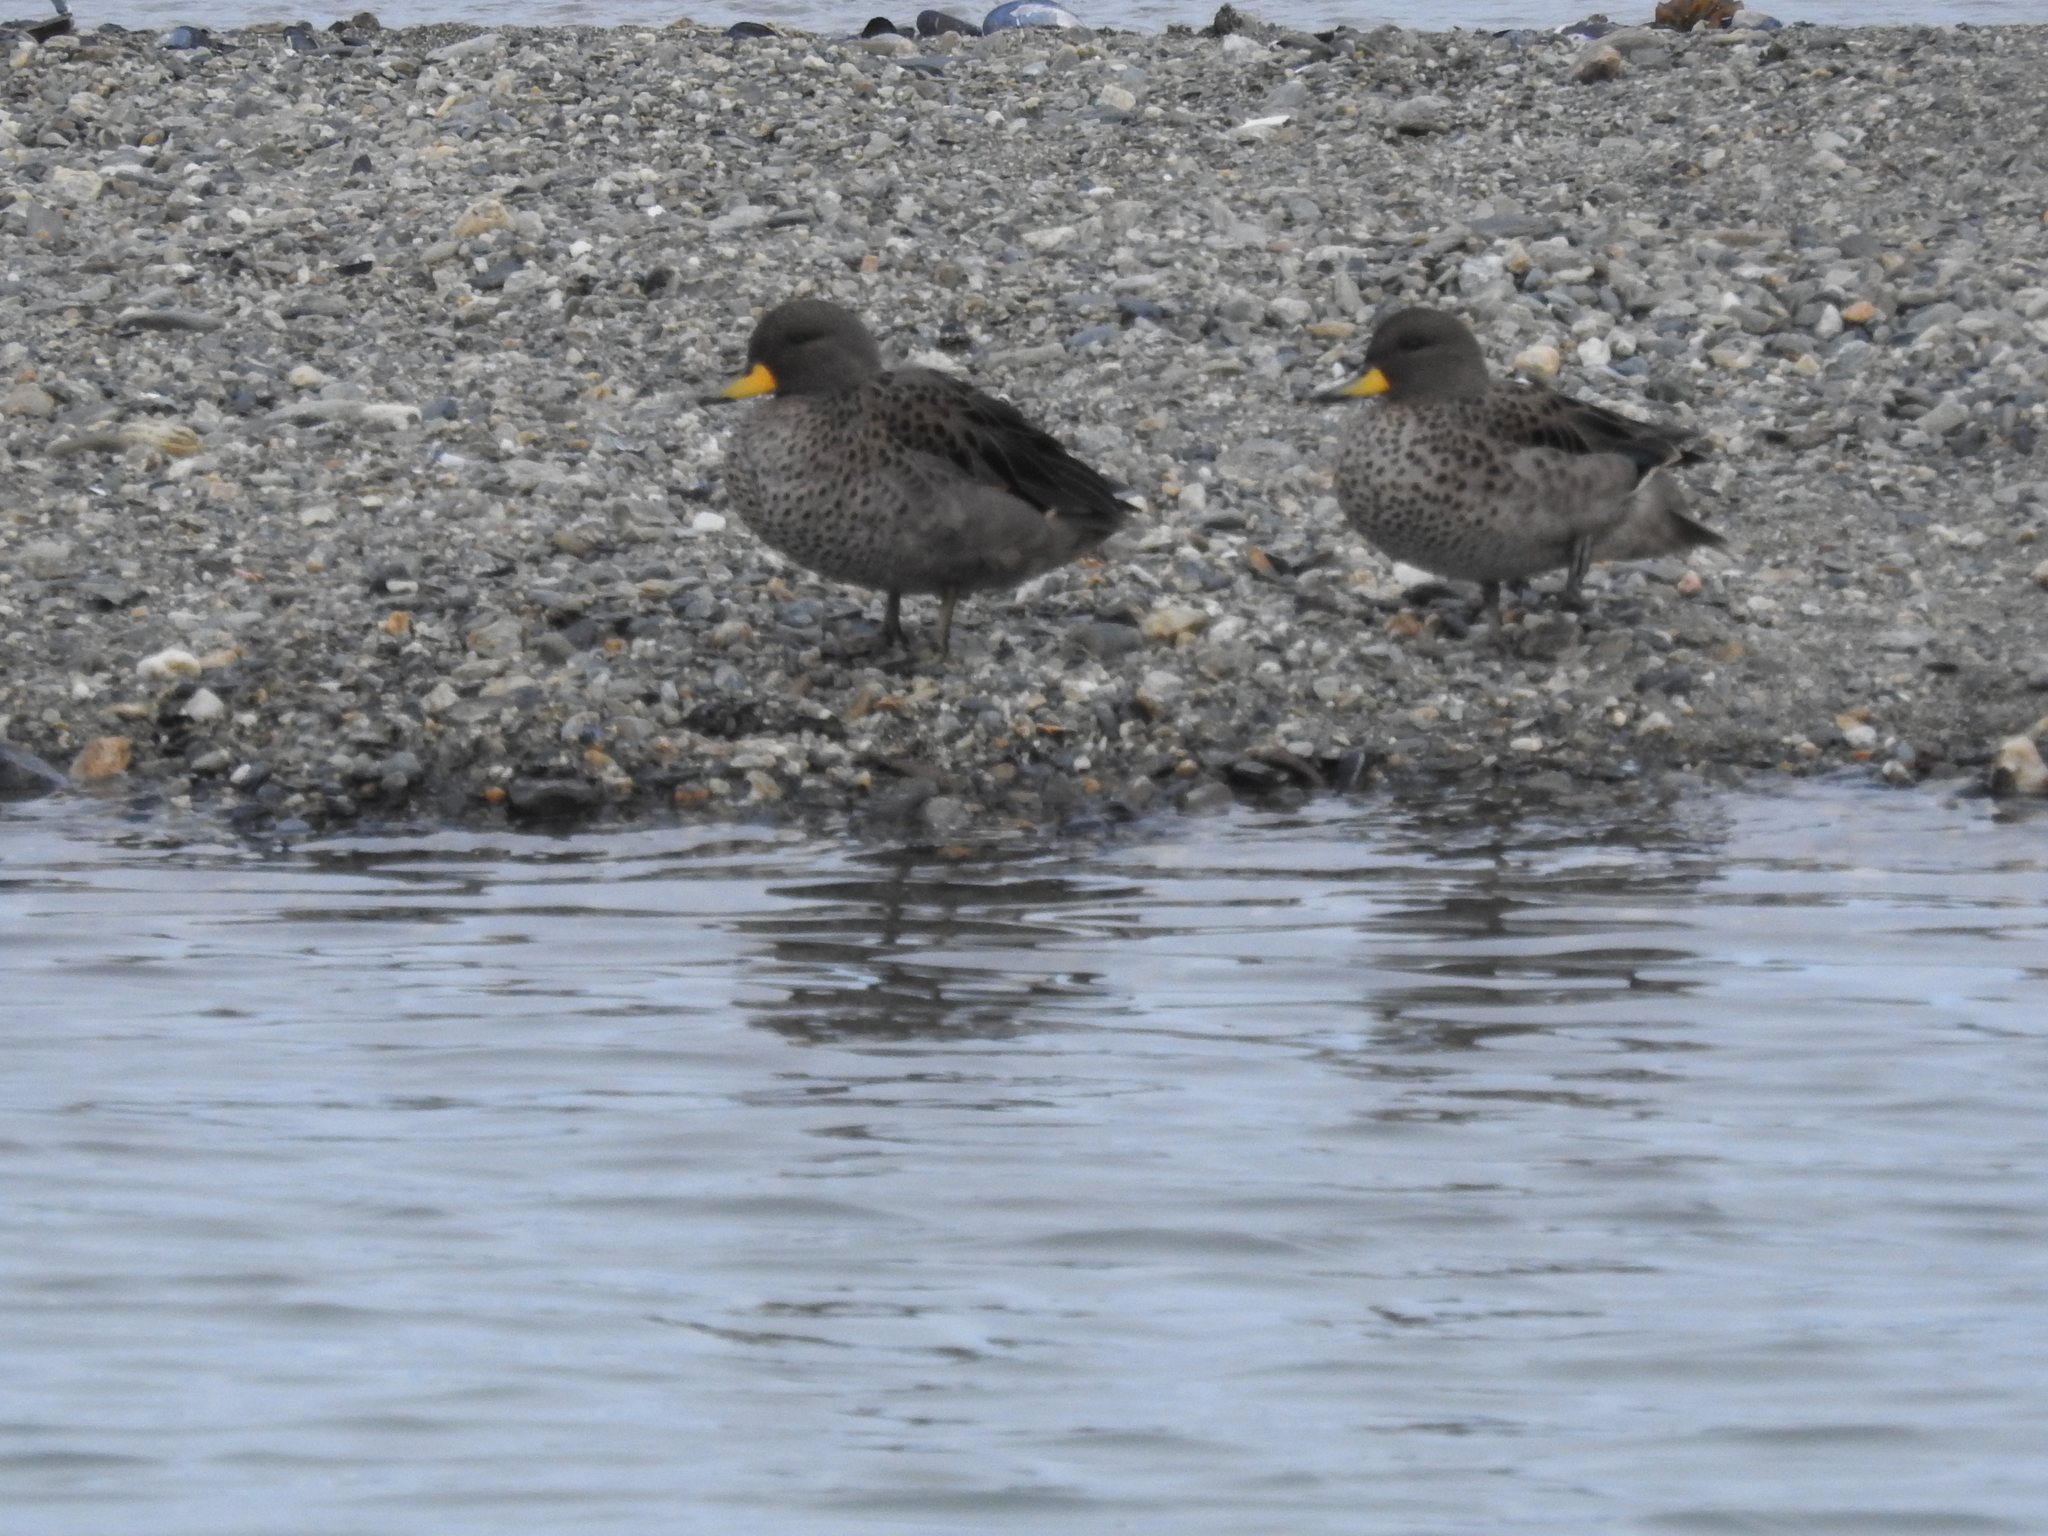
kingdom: Animalia
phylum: Chordata
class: Aves
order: Anseriformes
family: Anatidae
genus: Anas
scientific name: Anas flavirostris
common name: Yellow-billed teal
